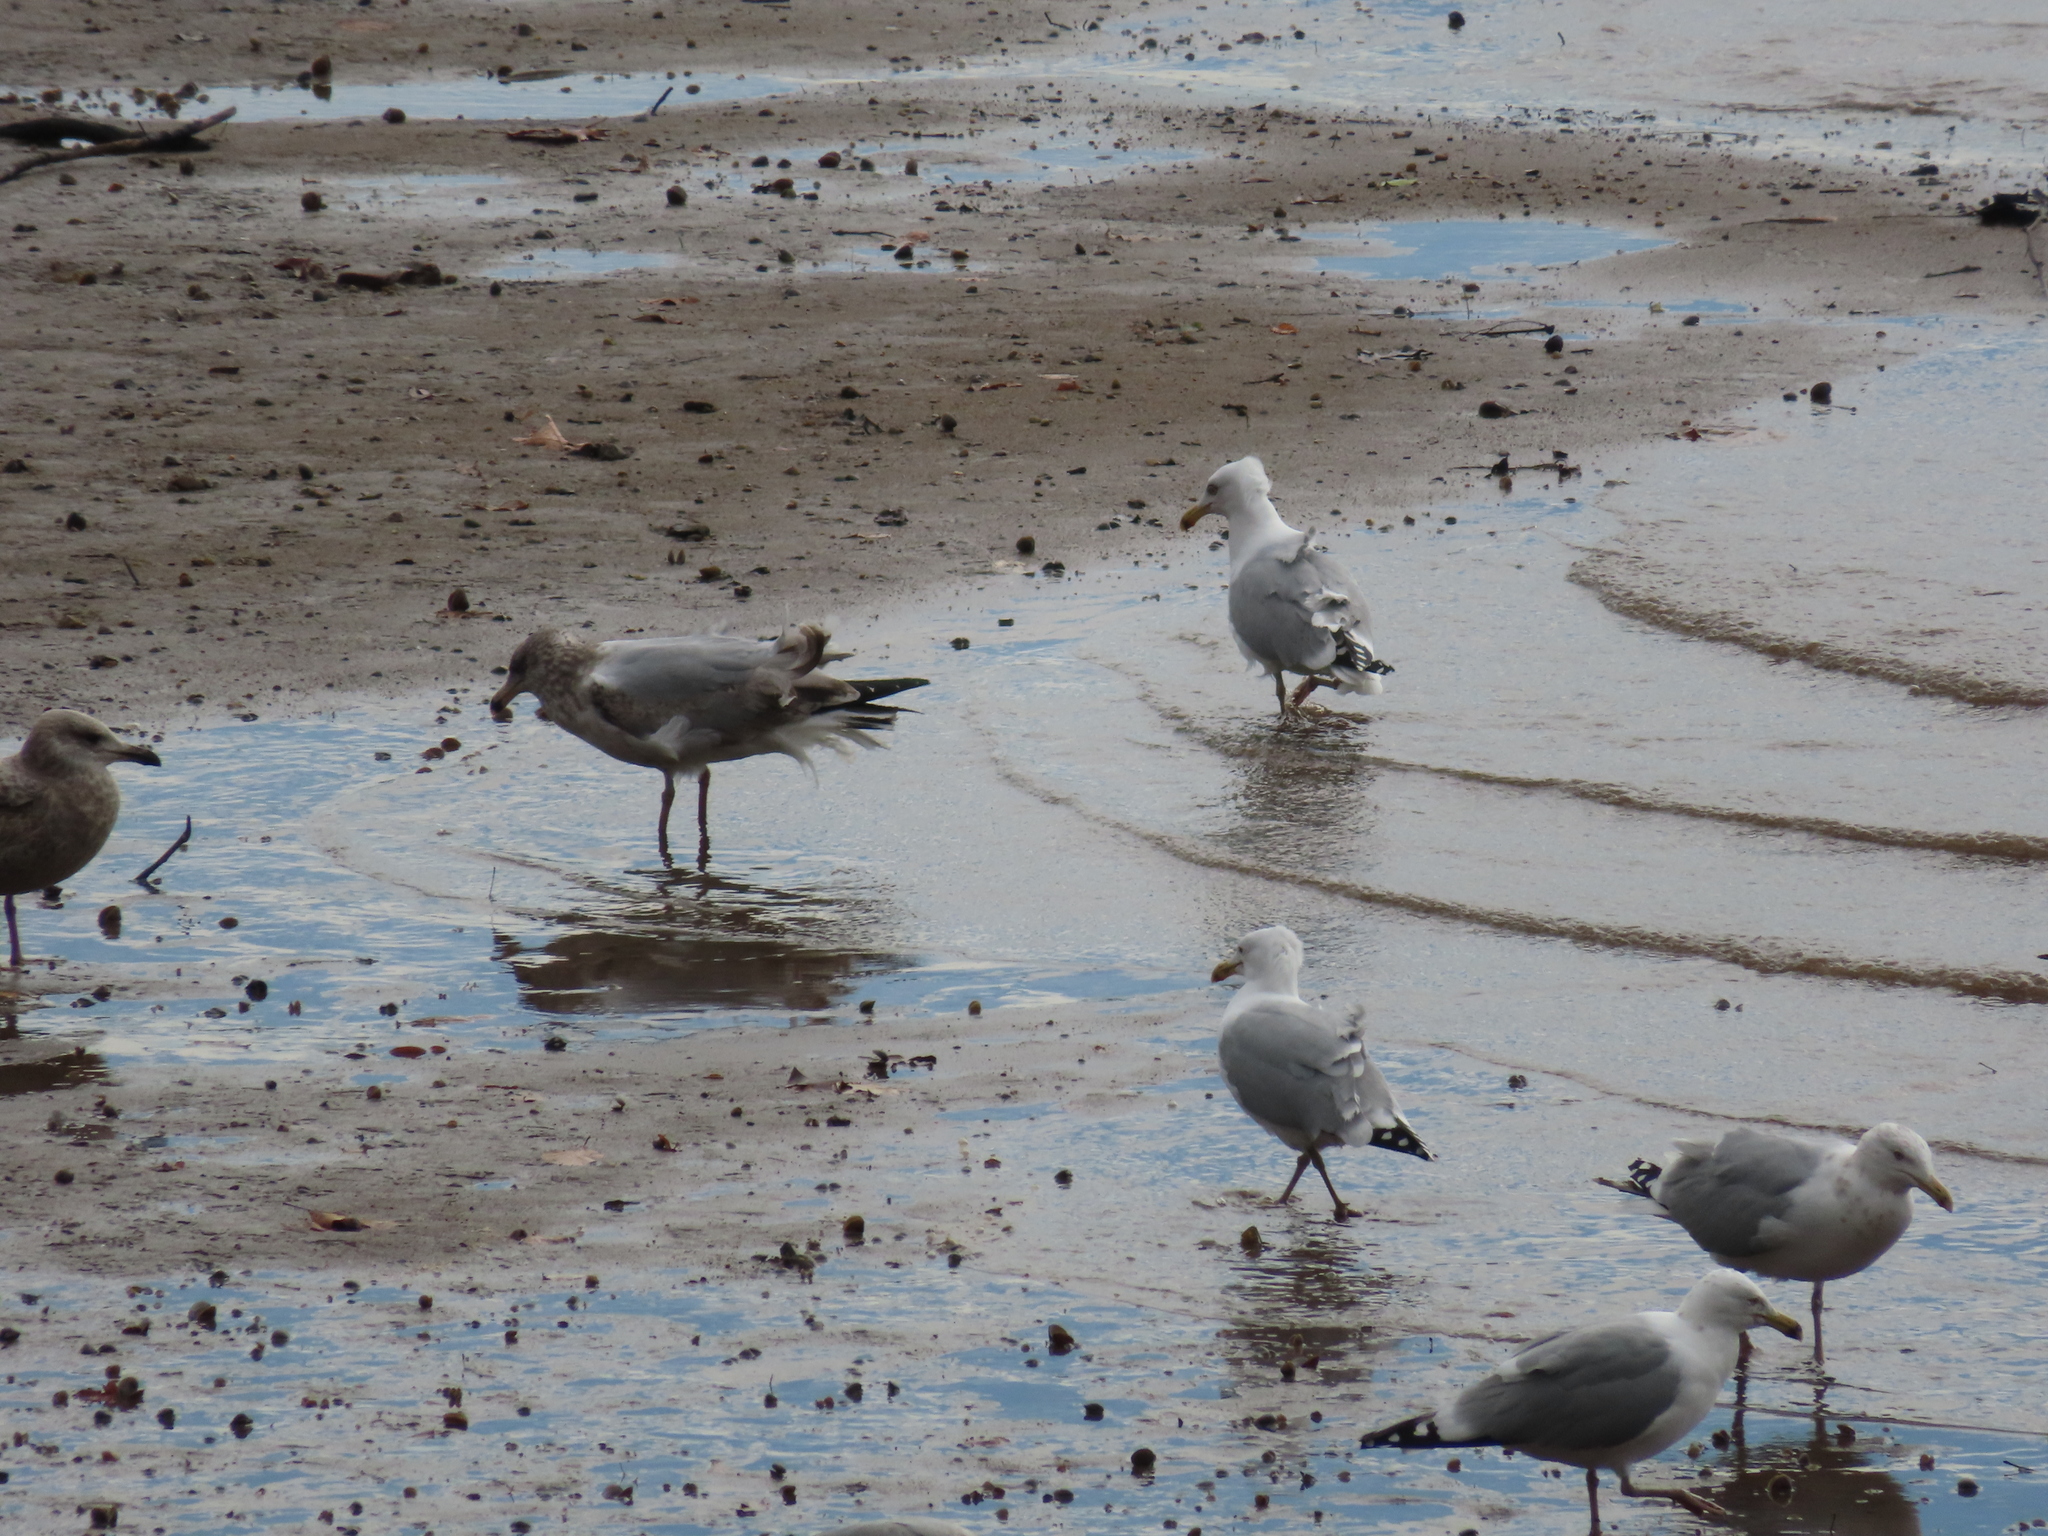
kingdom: Animalia
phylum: Chordata
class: Aves
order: Charadriiformes
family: Laridae
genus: Larus
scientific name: Larus argentatus
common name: Herring gull
